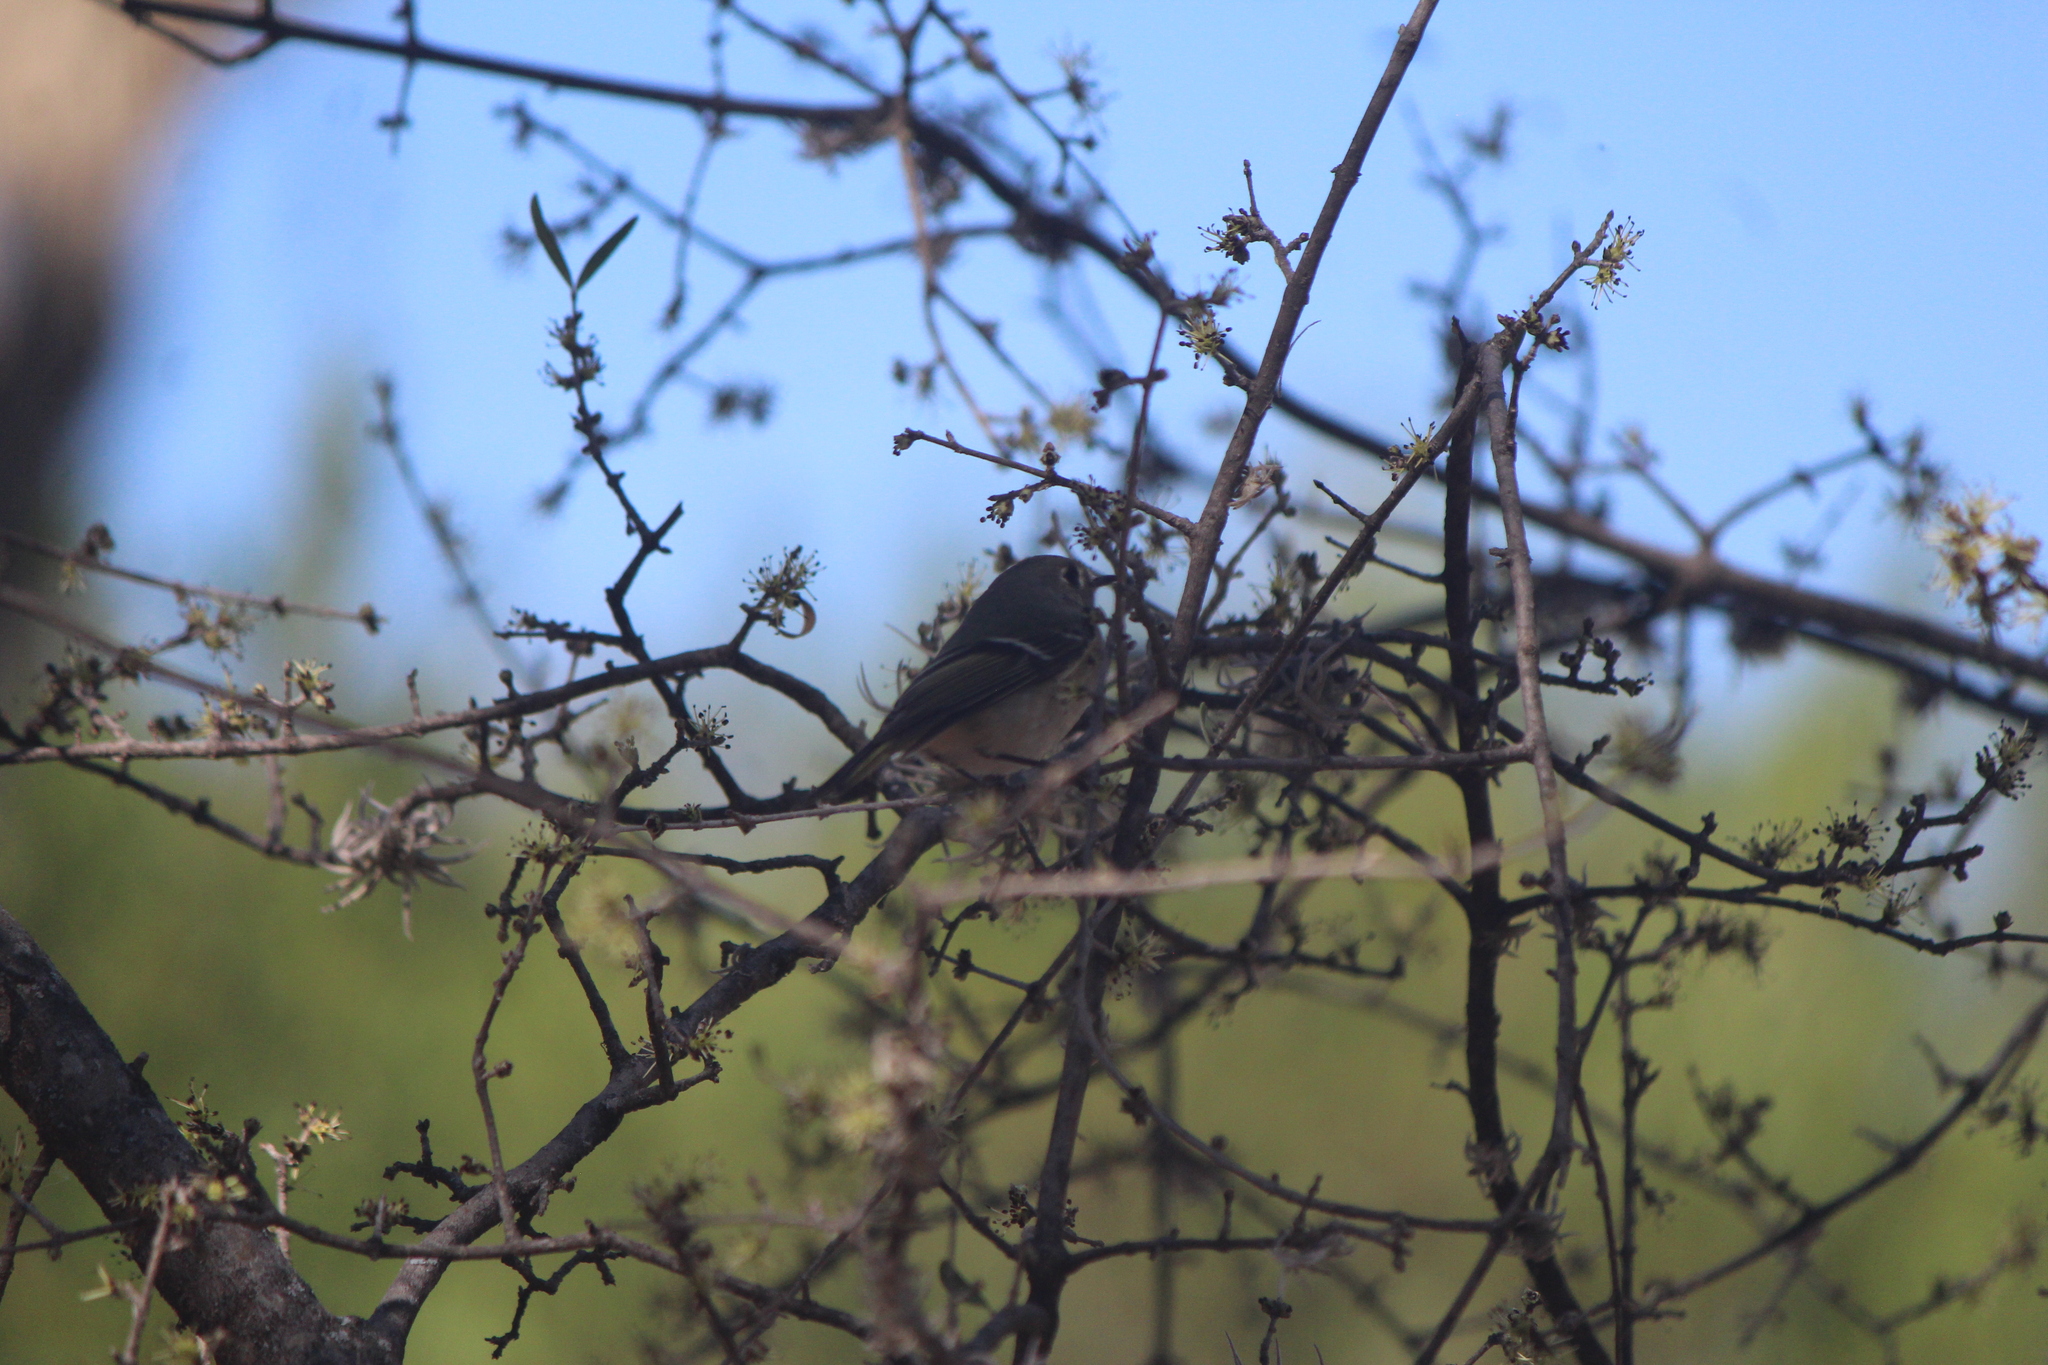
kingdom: Animalia
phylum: Chordata
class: Aves
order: Passeriformes
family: Regulidae
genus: Regulus
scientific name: Regulus calendula
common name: Ruby-crowned kinglet
